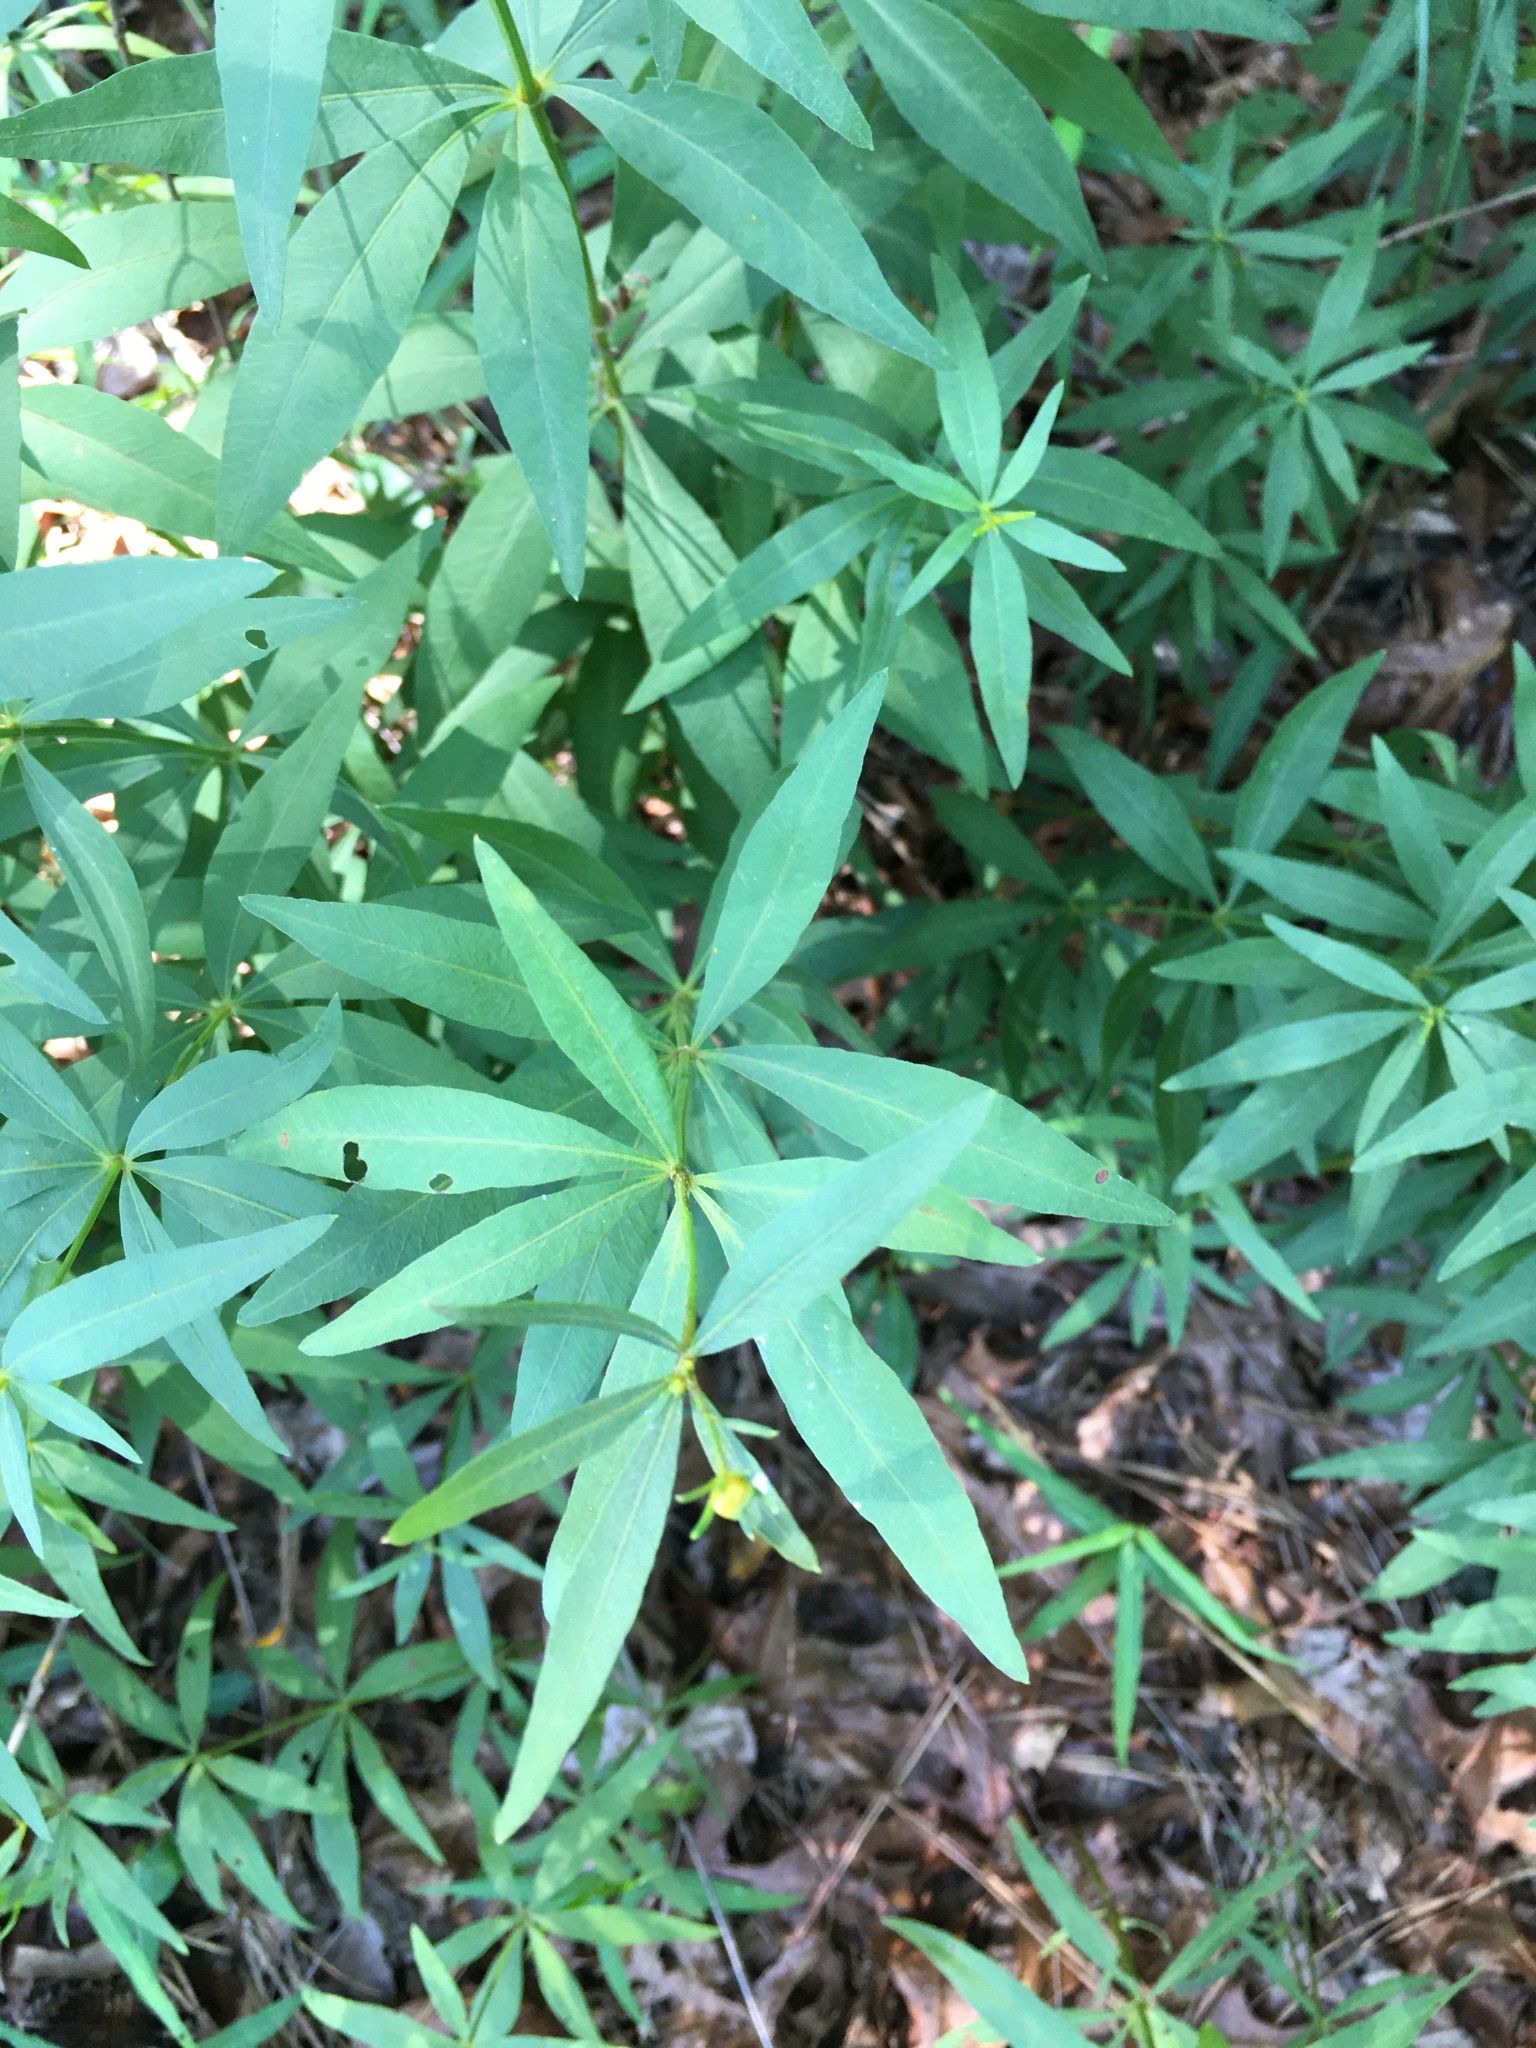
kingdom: Plantae
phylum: Tracheophyta
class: Magnoliopsida
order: Asterales
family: Asteraceae
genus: Coreopsis
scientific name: Coreopsis major
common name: Forest tickseed
